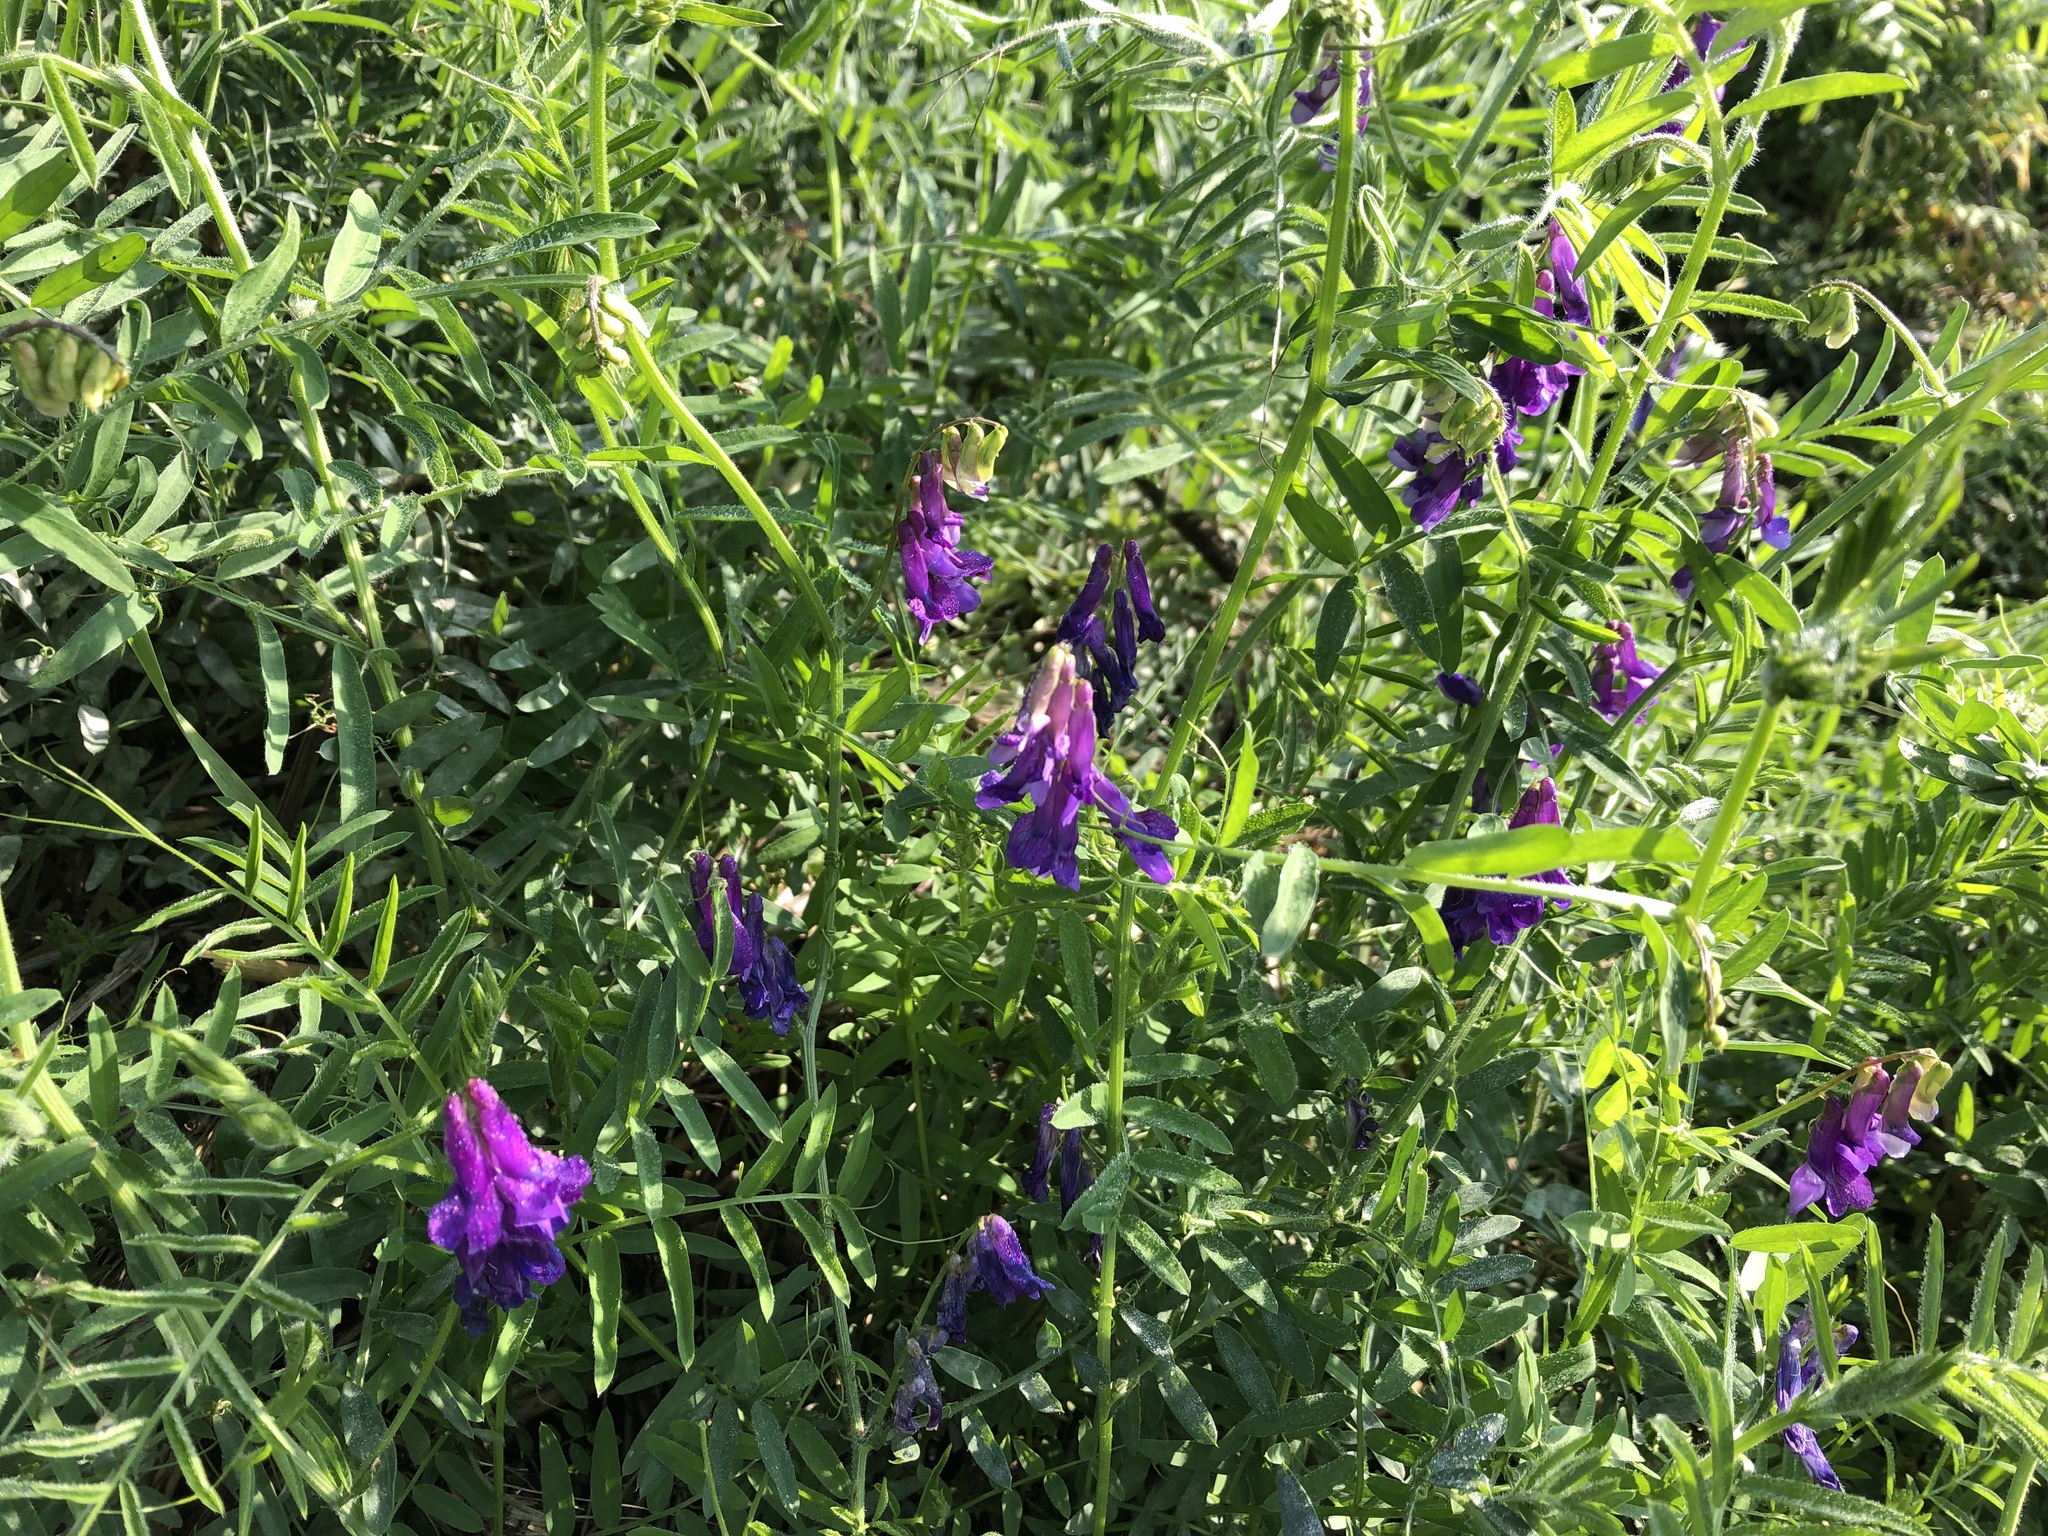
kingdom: Plantae
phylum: Tracheophyta
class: Magnoliopsida
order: Fabales
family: Fabaceae
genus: Vicia
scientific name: Vicia villosa
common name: Fodder vetch
